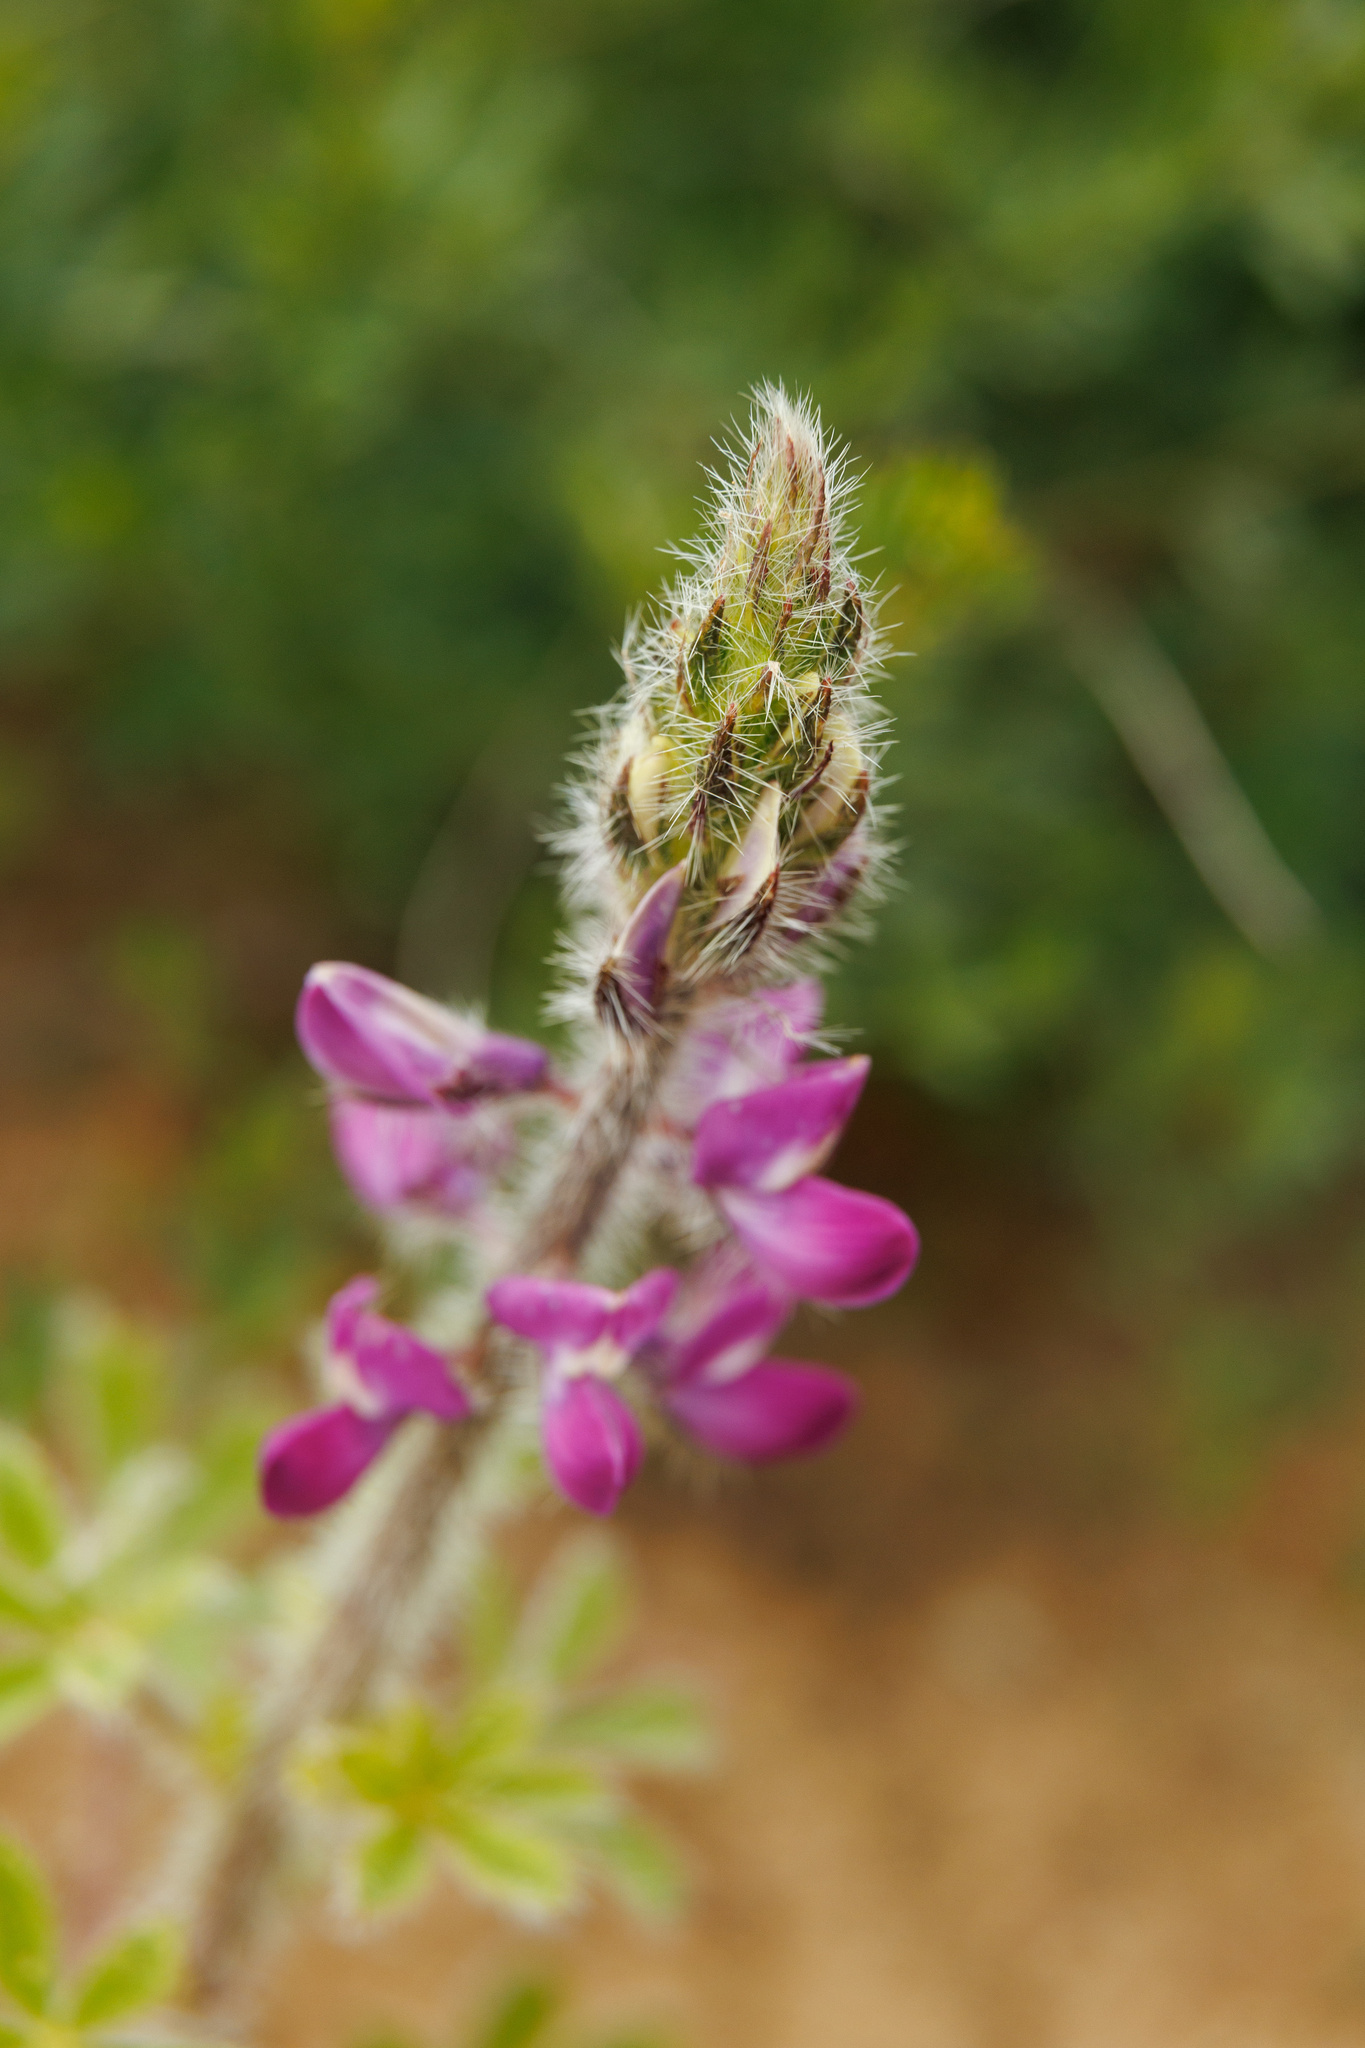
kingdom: Plantae
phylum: Tracheophyta
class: Magnoliopsida
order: Fabales
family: Fabaceae
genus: Lupinus
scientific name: Lupinus hirsutissimus
